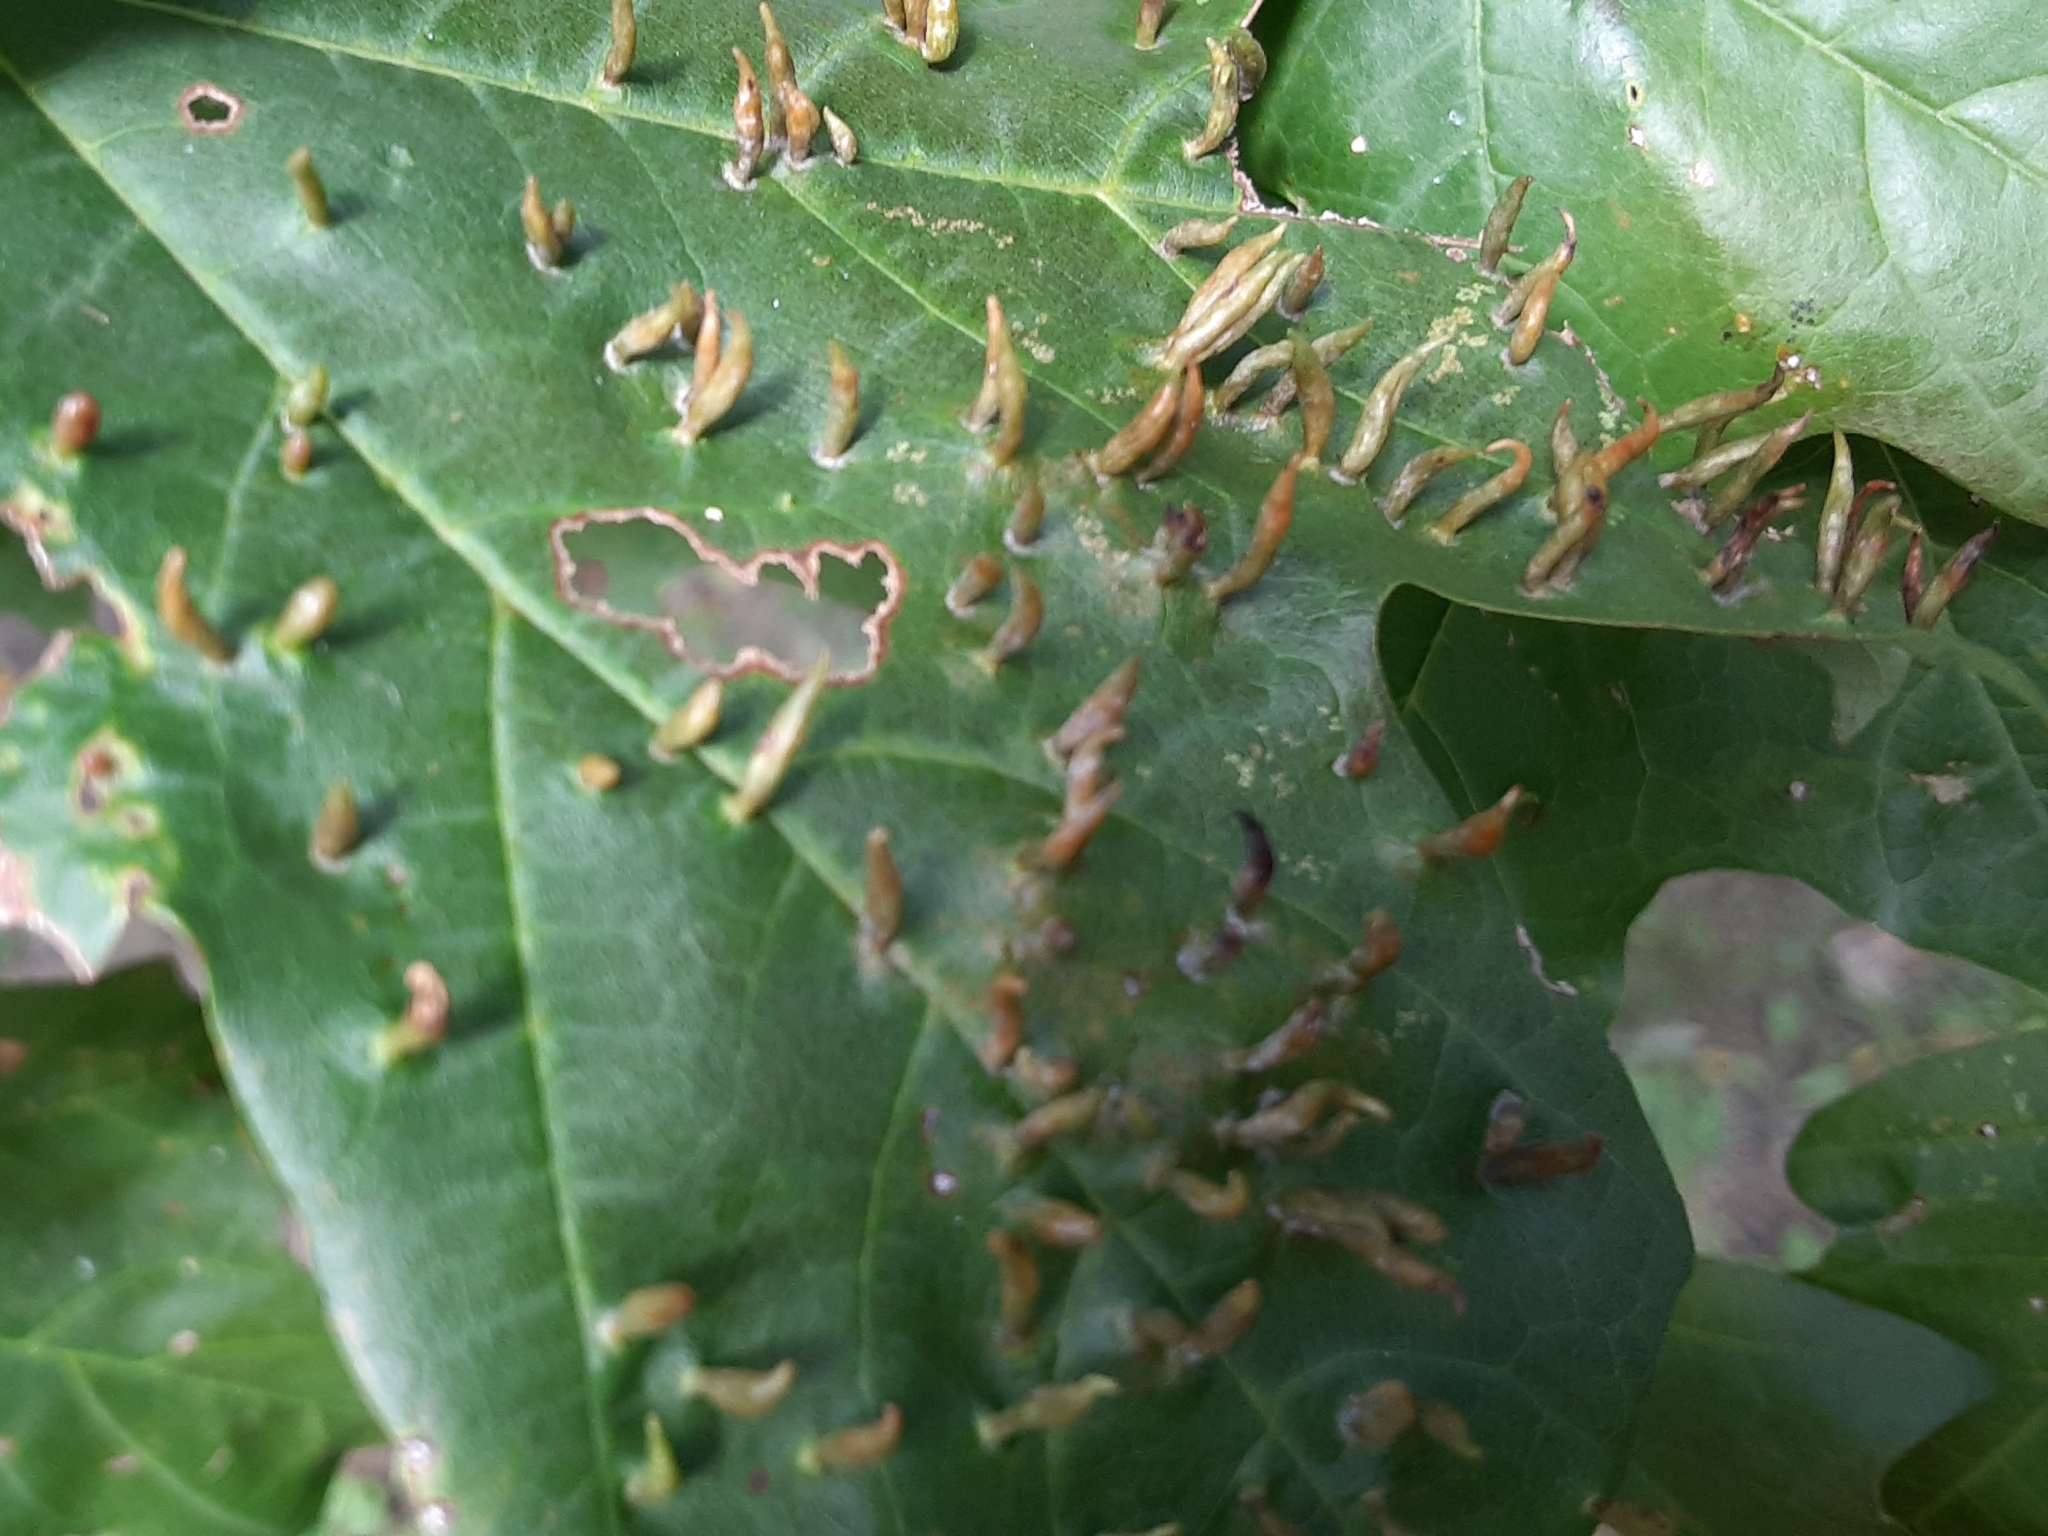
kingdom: Animalia
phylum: Arthropoda
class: Arachnida
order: Trombidiformes
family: Eriophyidae
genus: Vasates
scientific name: Vasates aceriscrumena
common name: Maple spindle gall mite
